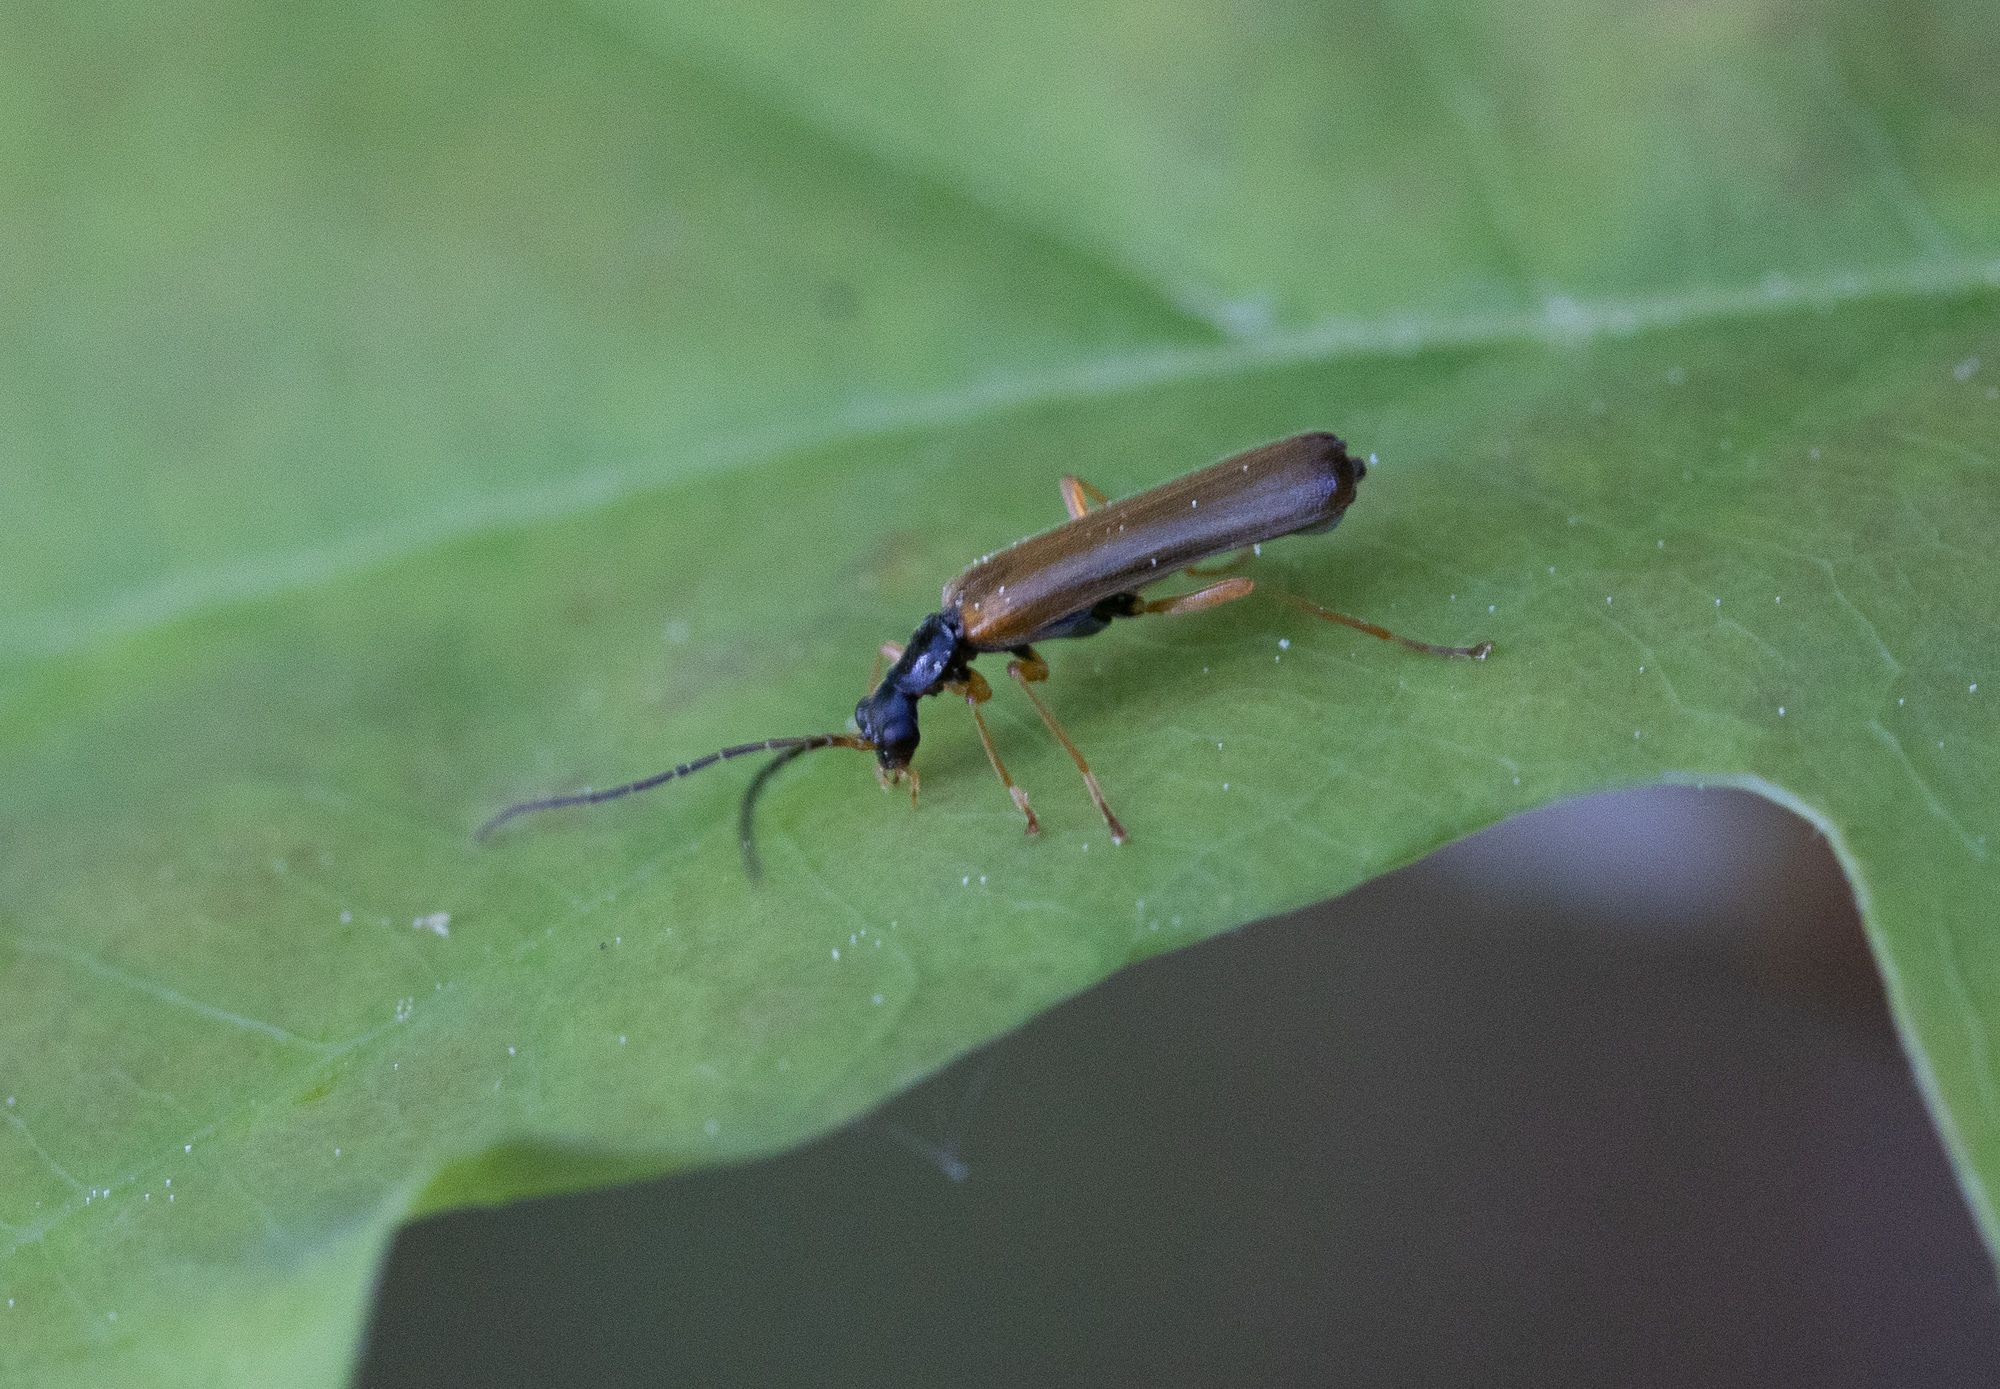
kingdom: Animalia
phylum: Arthropoda
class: Insecta
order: Coleoptera
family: Cantharidae
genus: Rhagonycha
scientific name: Rhagonycha lignosa
